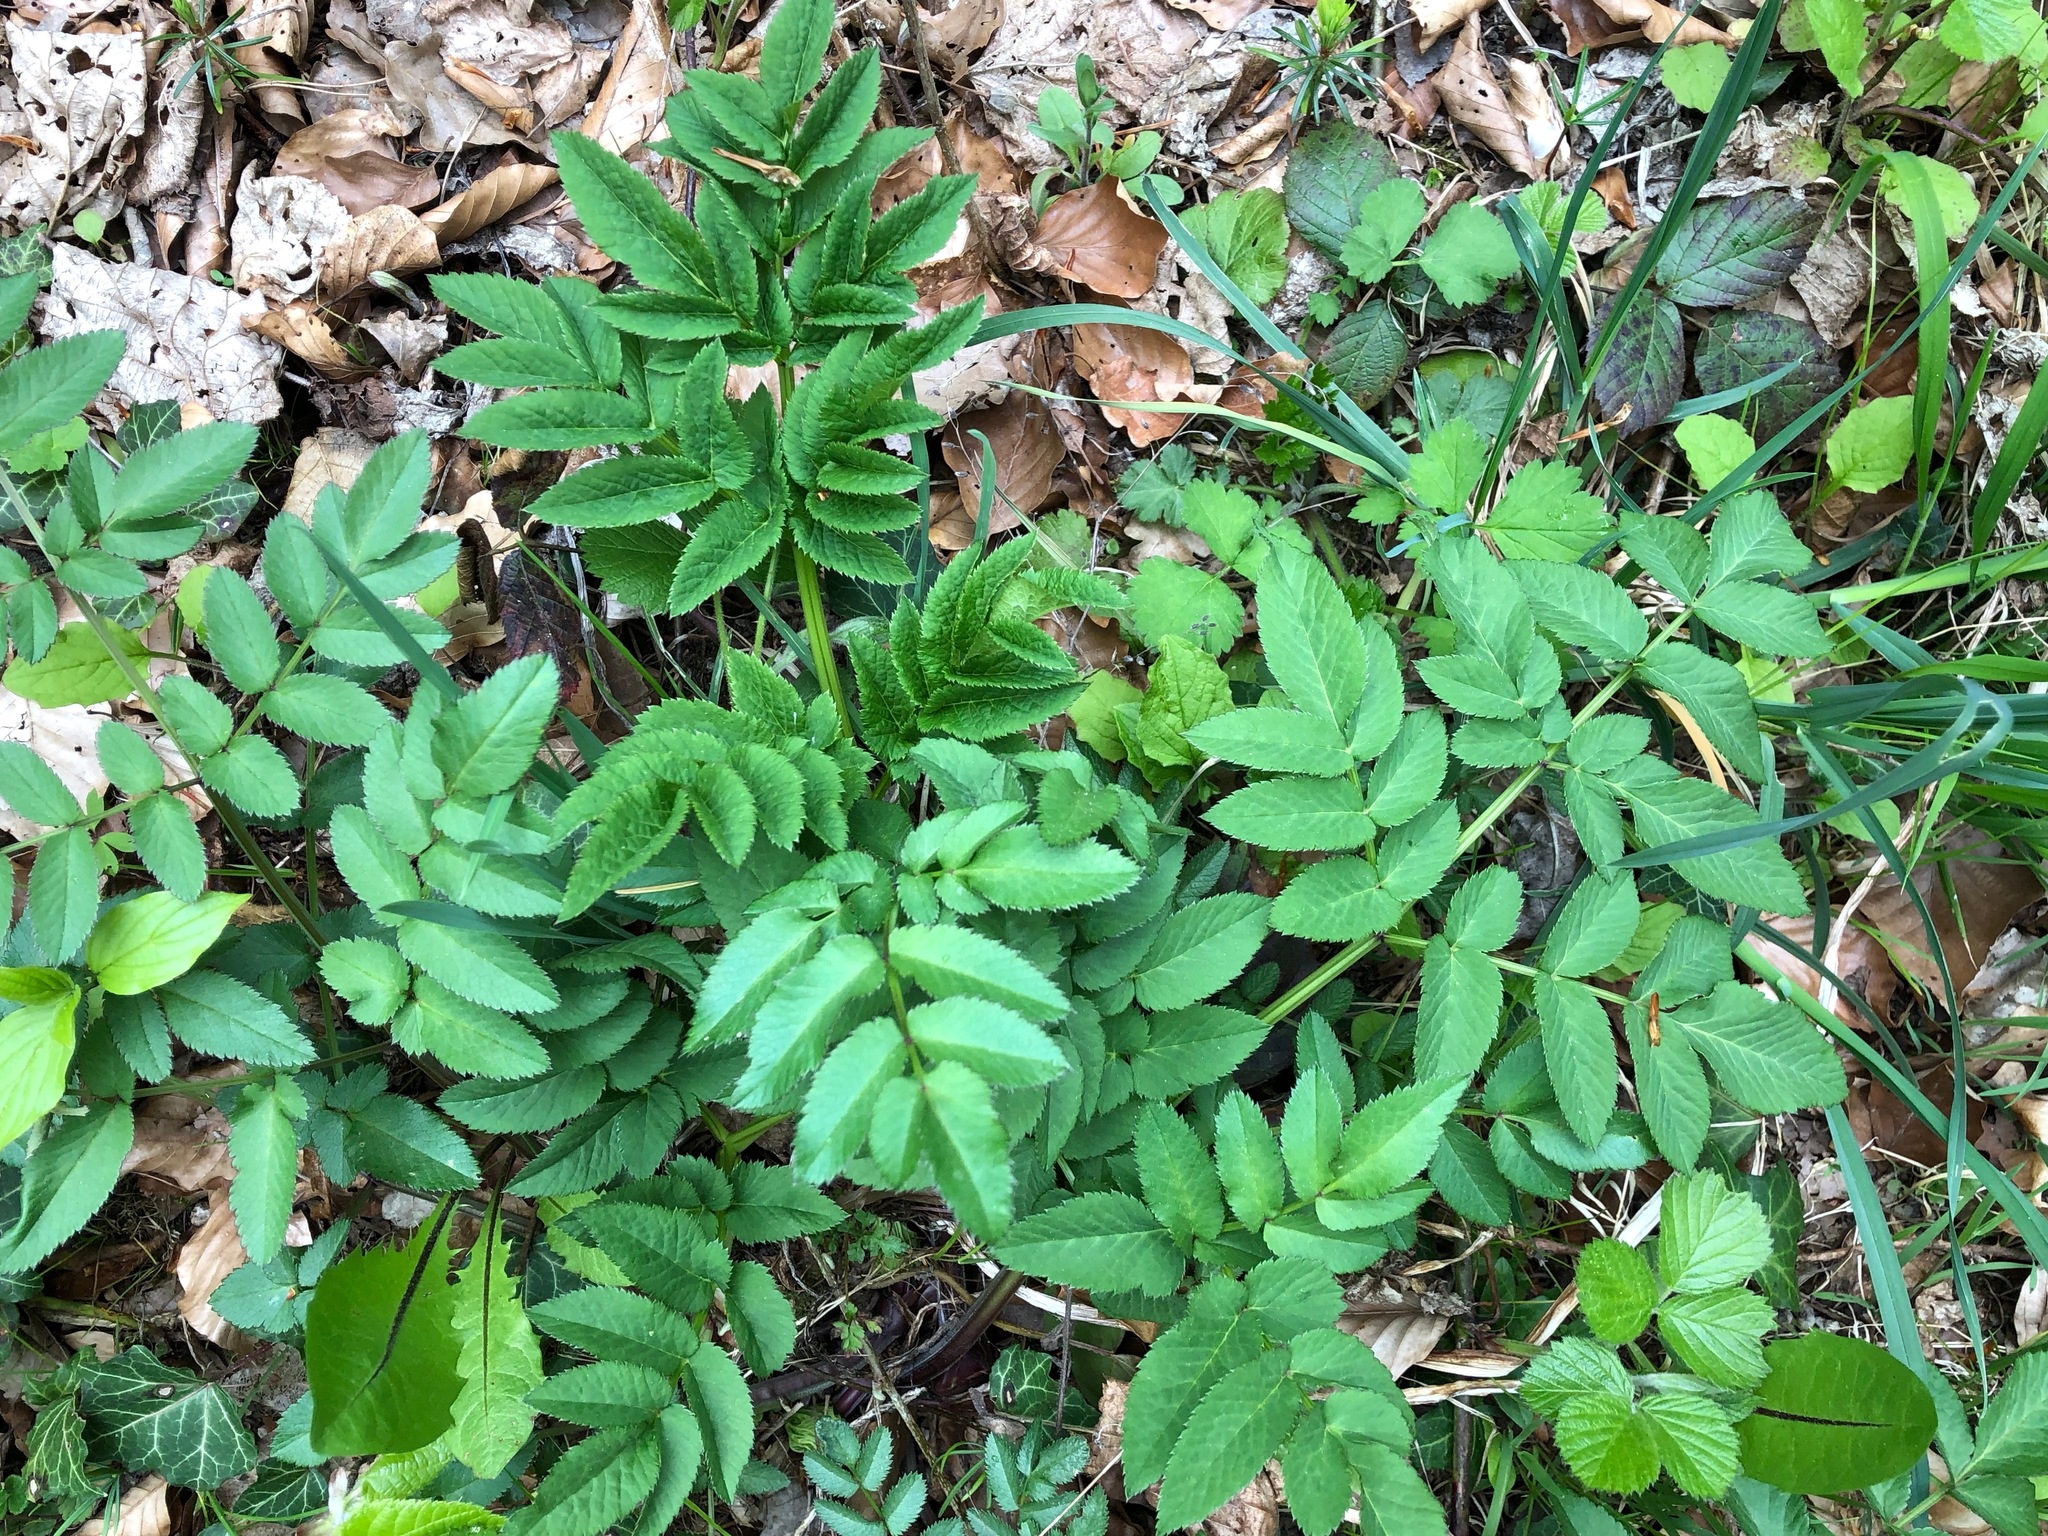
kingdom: Plantae
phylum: Tracheophyta
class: Magnoliopsida
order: Apiales
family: Apiaceae
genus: Angelica
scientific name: Angelica sylvestris
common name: Wild angelica
